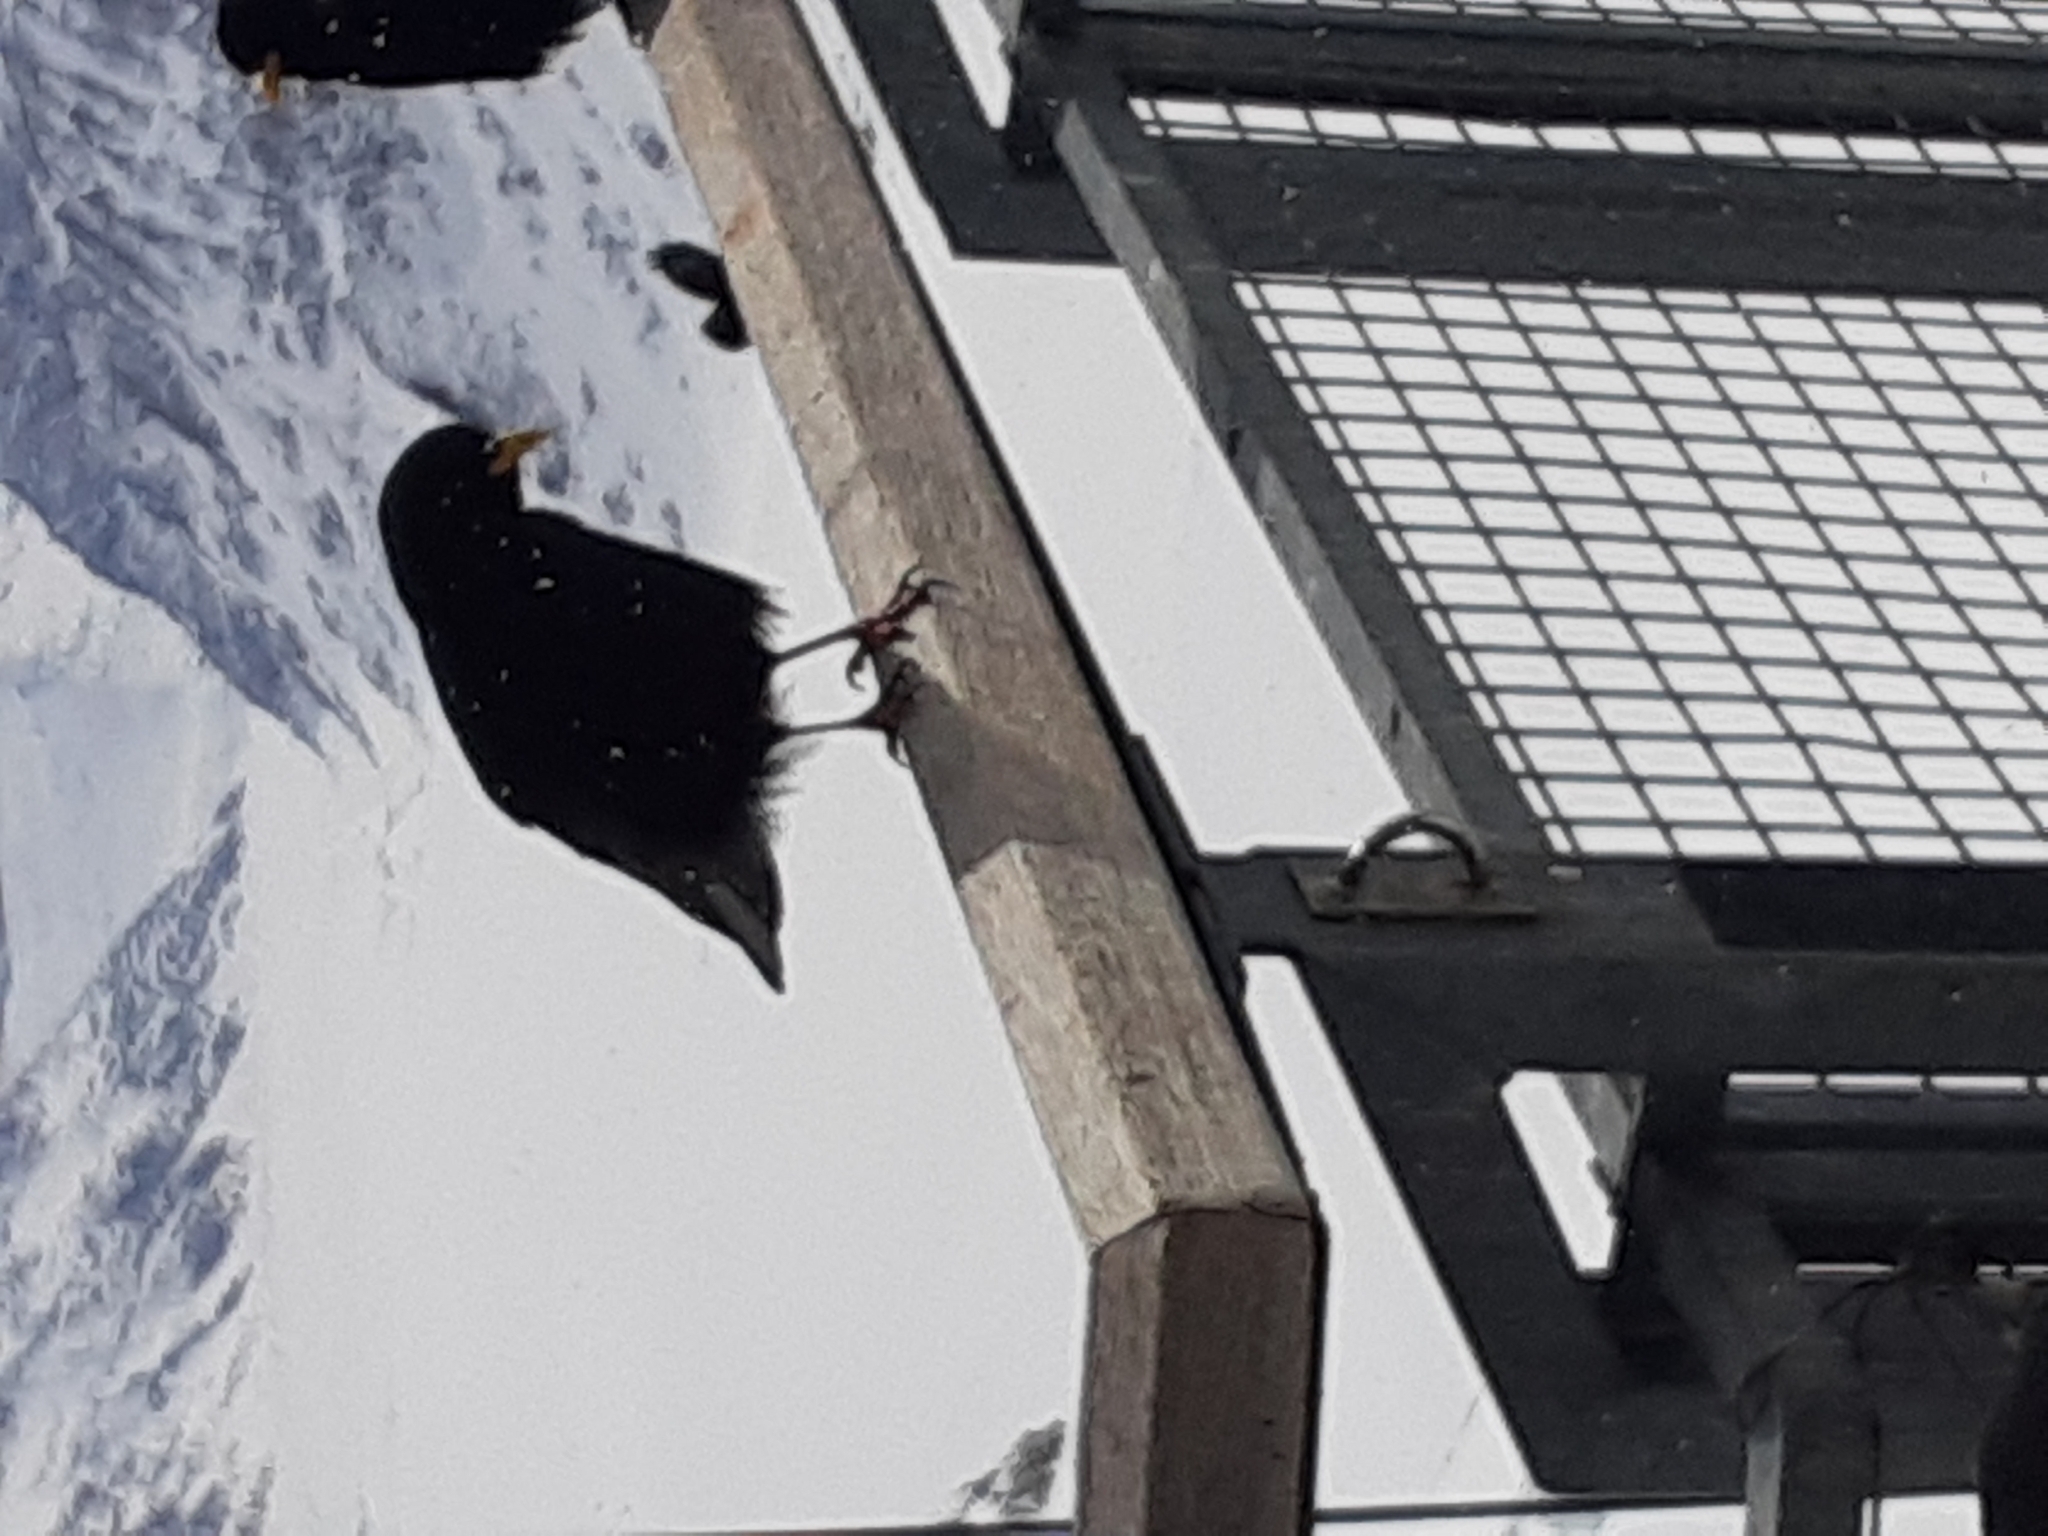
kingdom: Animalia
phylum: Chordata
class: Aves
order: Passeriformes
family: Corvidae
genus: Pyrrhocorax
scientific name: Pyrrhocorax graculus
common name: Alpine chough
